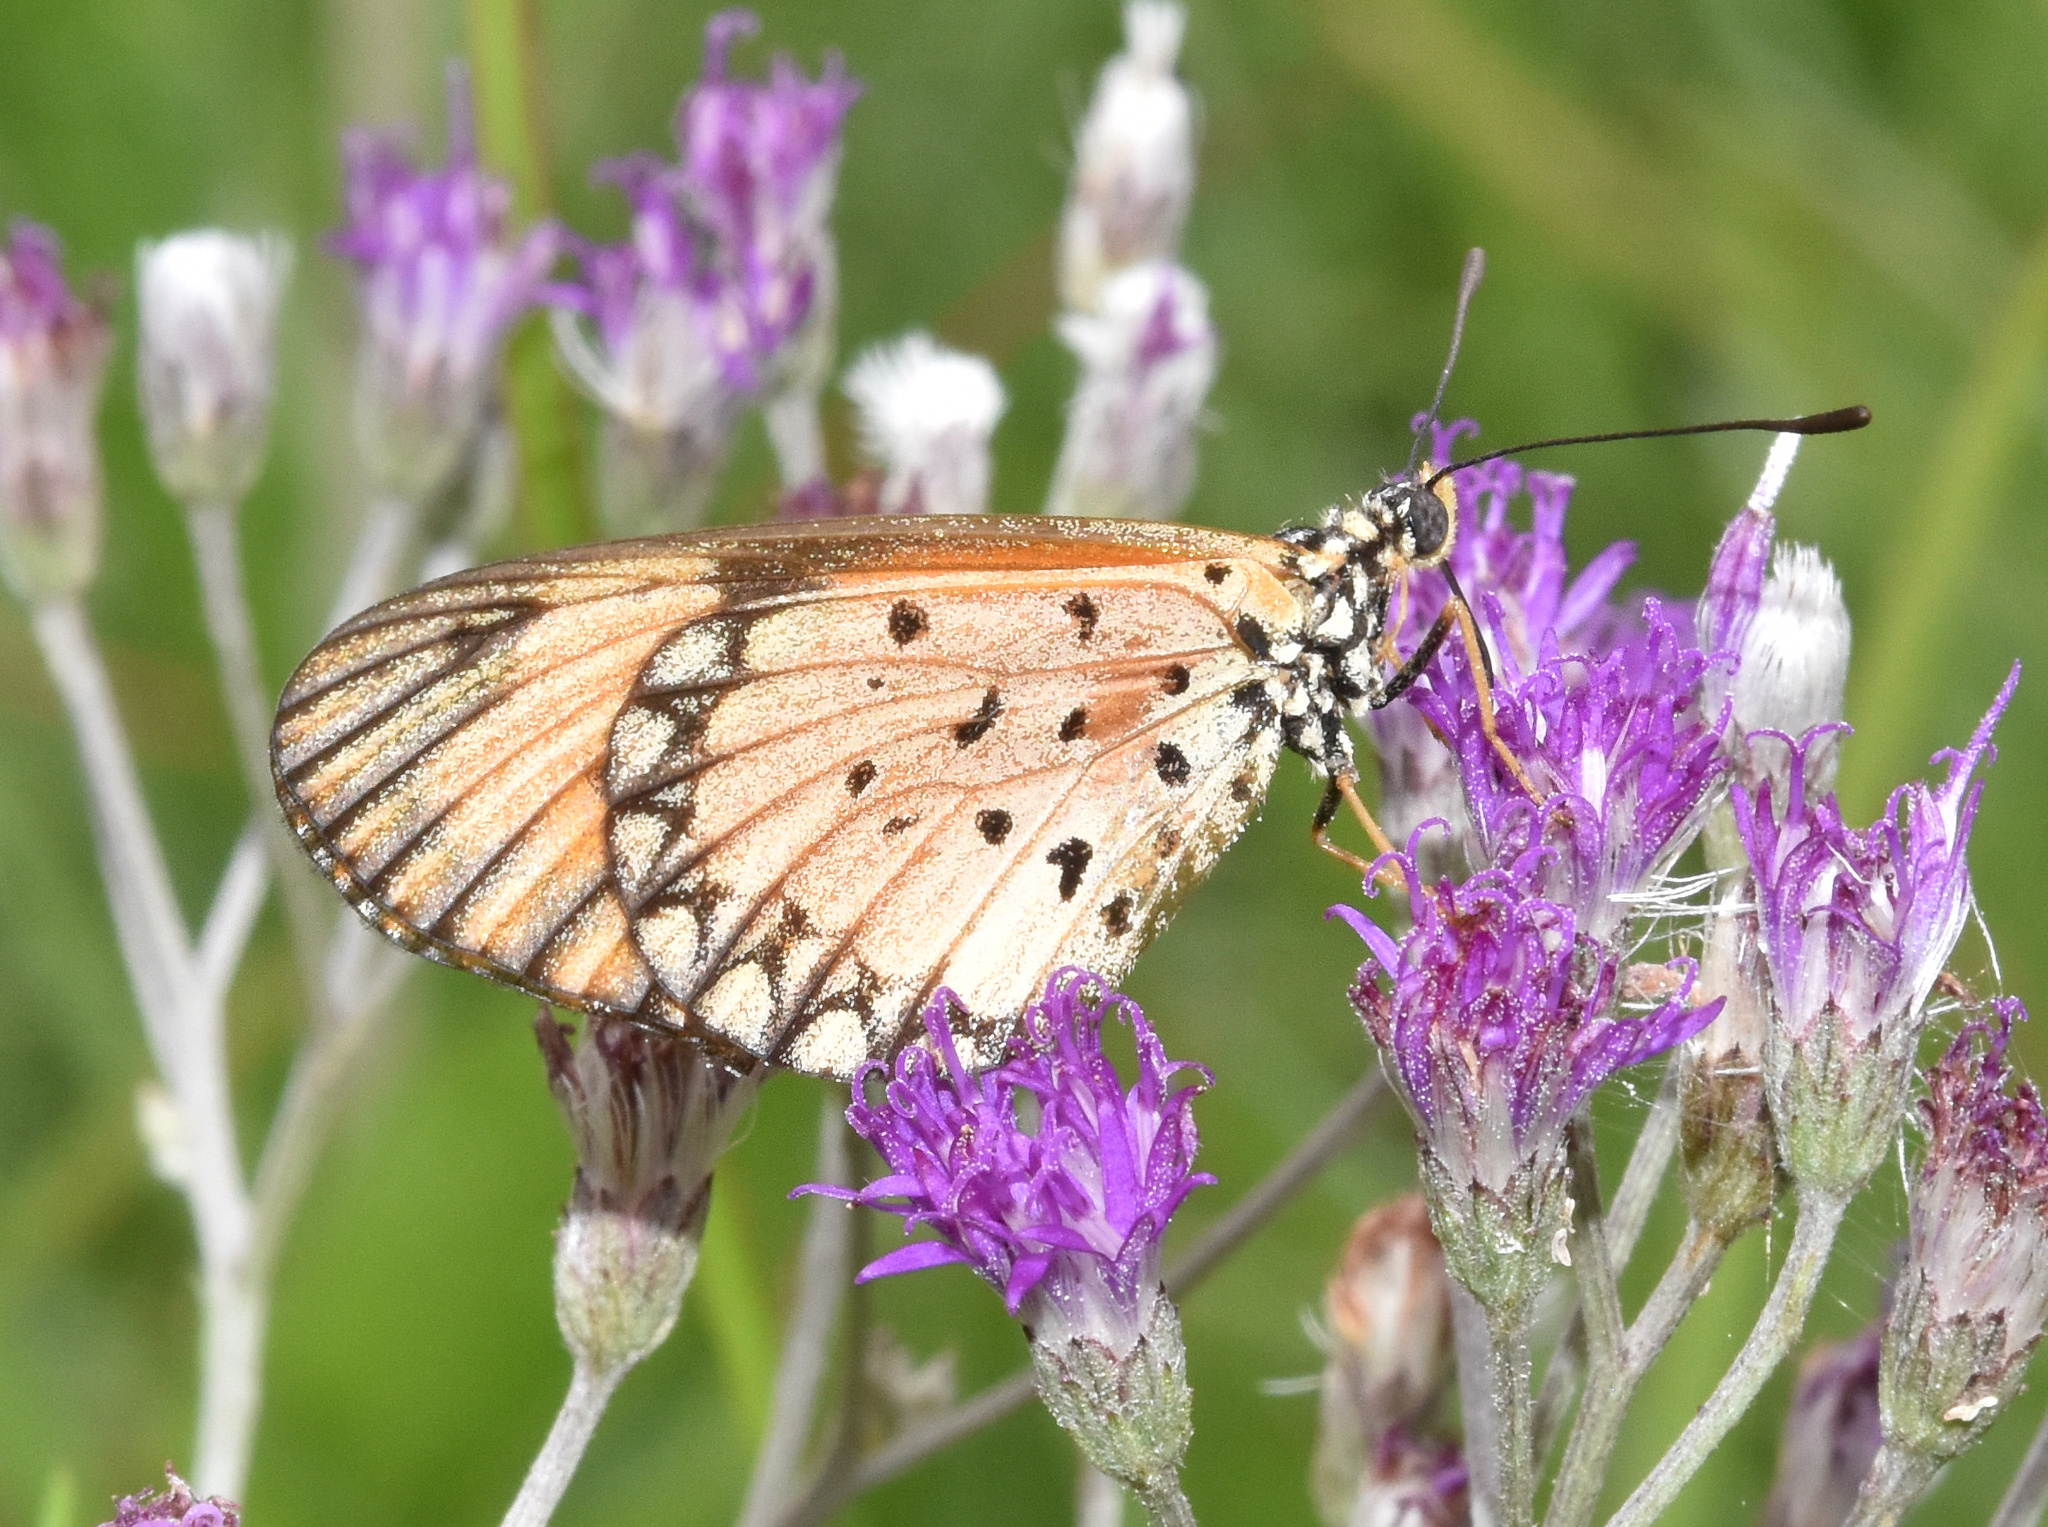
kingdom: Animalia
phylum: Arthropoda
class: Insecta
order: Lepidoptera
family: Nymphalidae
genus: Acraea
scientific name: Acraea Telchinia serena
